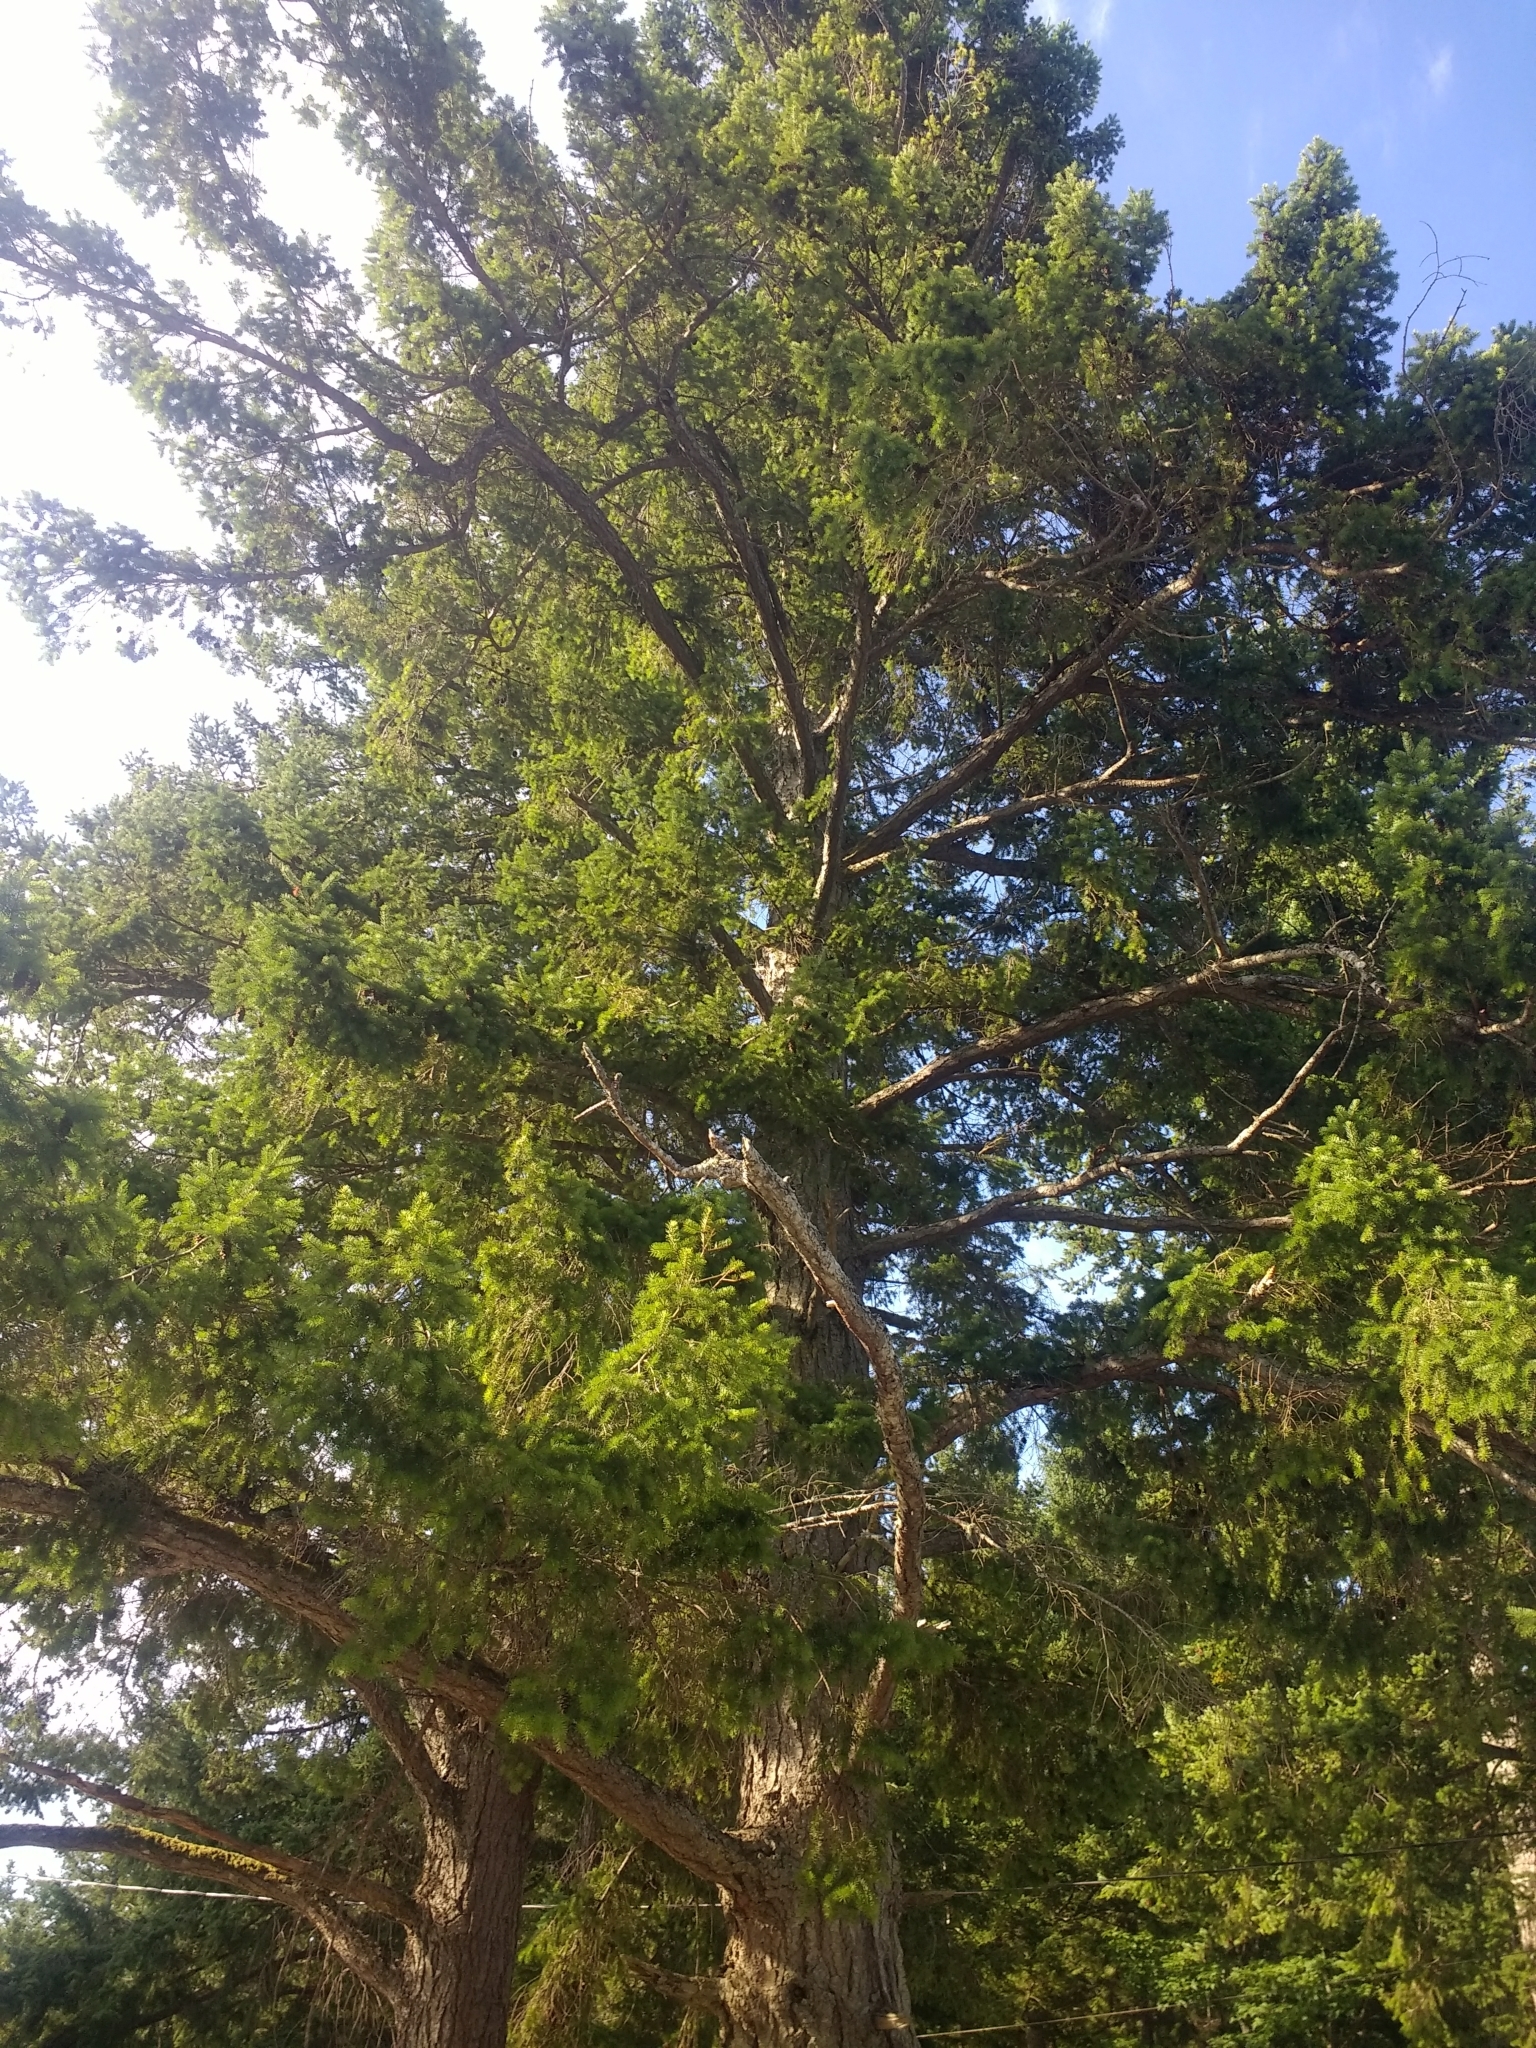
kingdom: Plantae
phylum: Tracheophyta
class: Pinopsida
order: Pinales
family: Pinaceae
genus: Pseudotsuga
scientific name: Pseudotsuga menziesii
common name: Douglas fir
